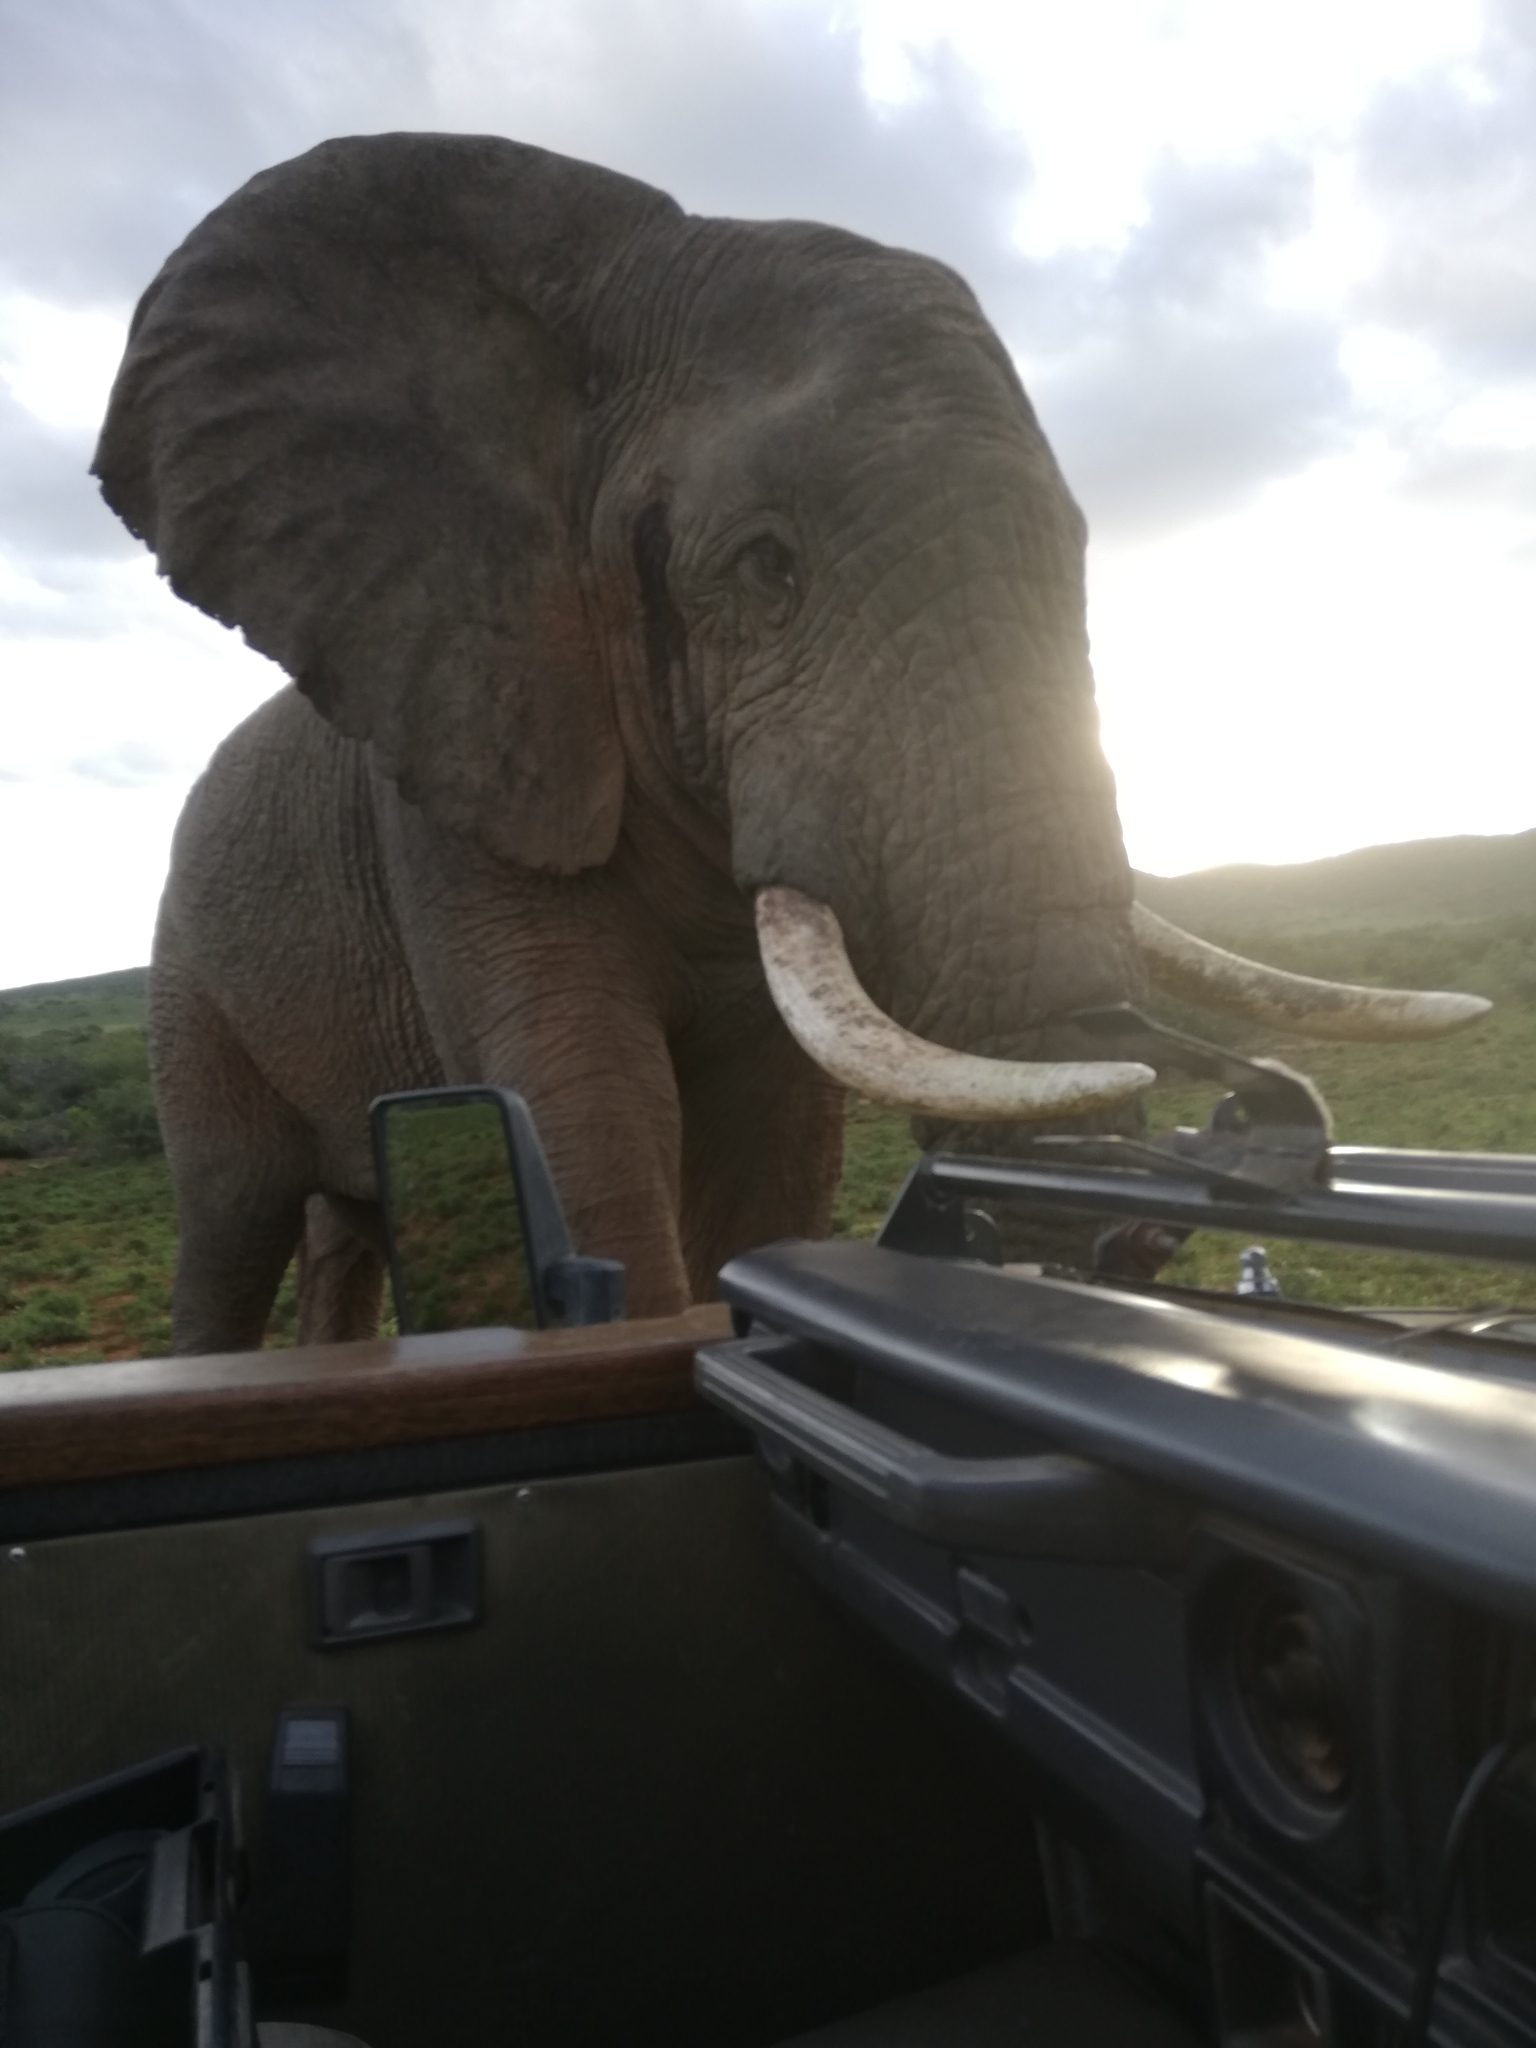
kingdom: Animalia
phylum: Chordata
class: Mammalia
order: Proboscidea
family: Elephantidae
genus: Loxodonta
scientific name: Loxodonta africana
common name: African elephant
